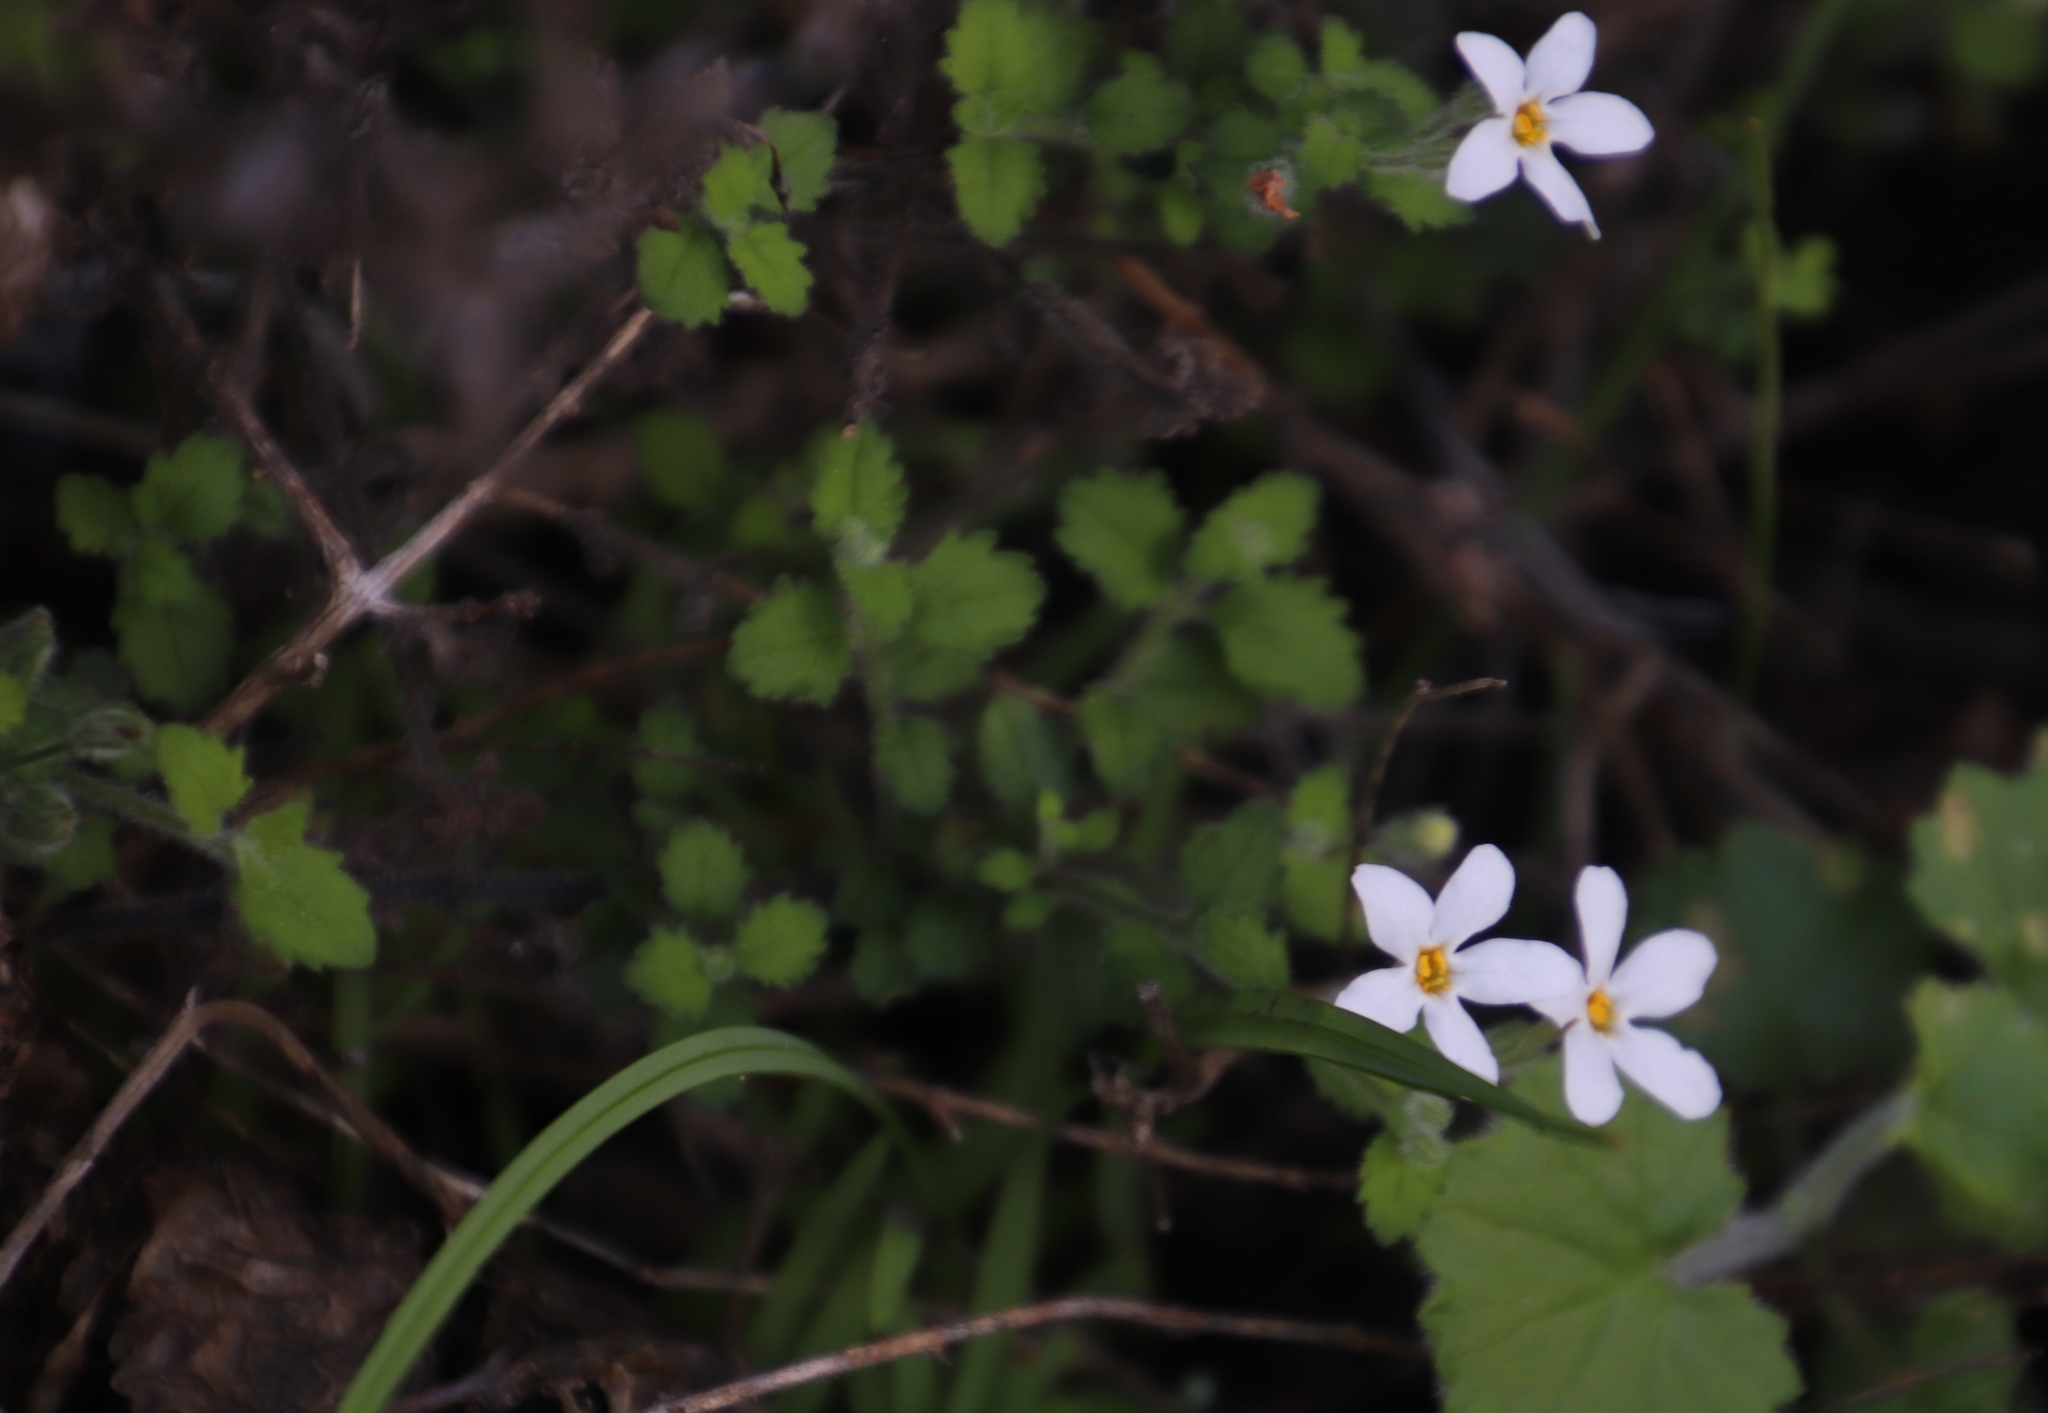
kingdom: Plantae
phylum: Tracheophyta
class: Magnoliopsida
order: Lamiales
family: Scrophulariaceae
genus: Chaenostoma
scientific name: Chaenostoma hispidum
